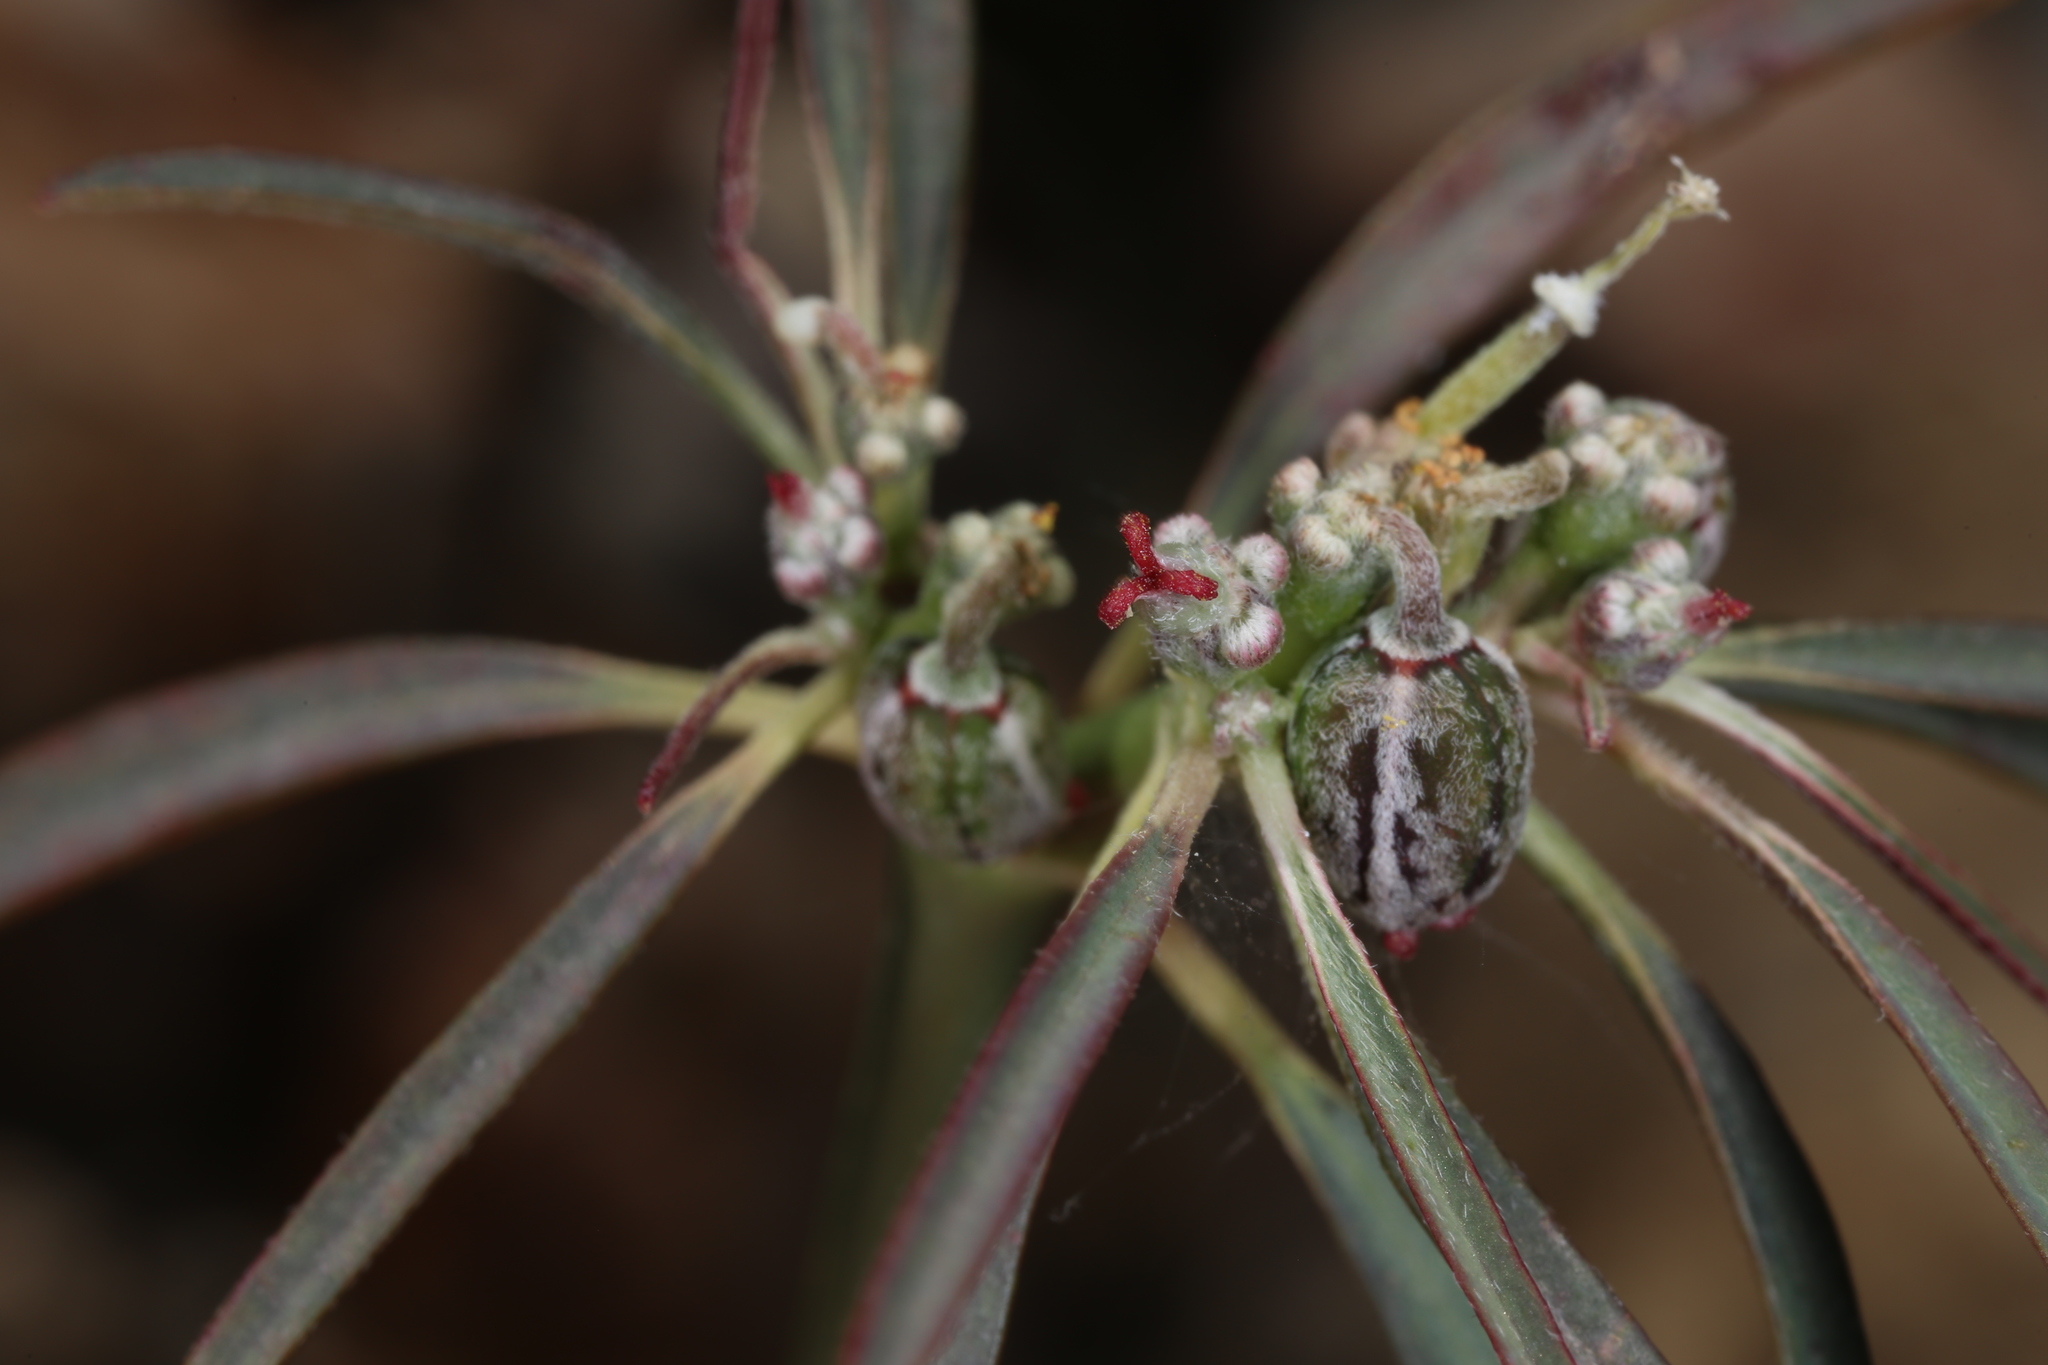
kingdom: Plantae
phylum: Tracheophyta
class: Magnoliopsida
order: Malpighiales
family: Euphorbiaceae
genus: Euphorbia
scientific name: Euphorbia eriantha
